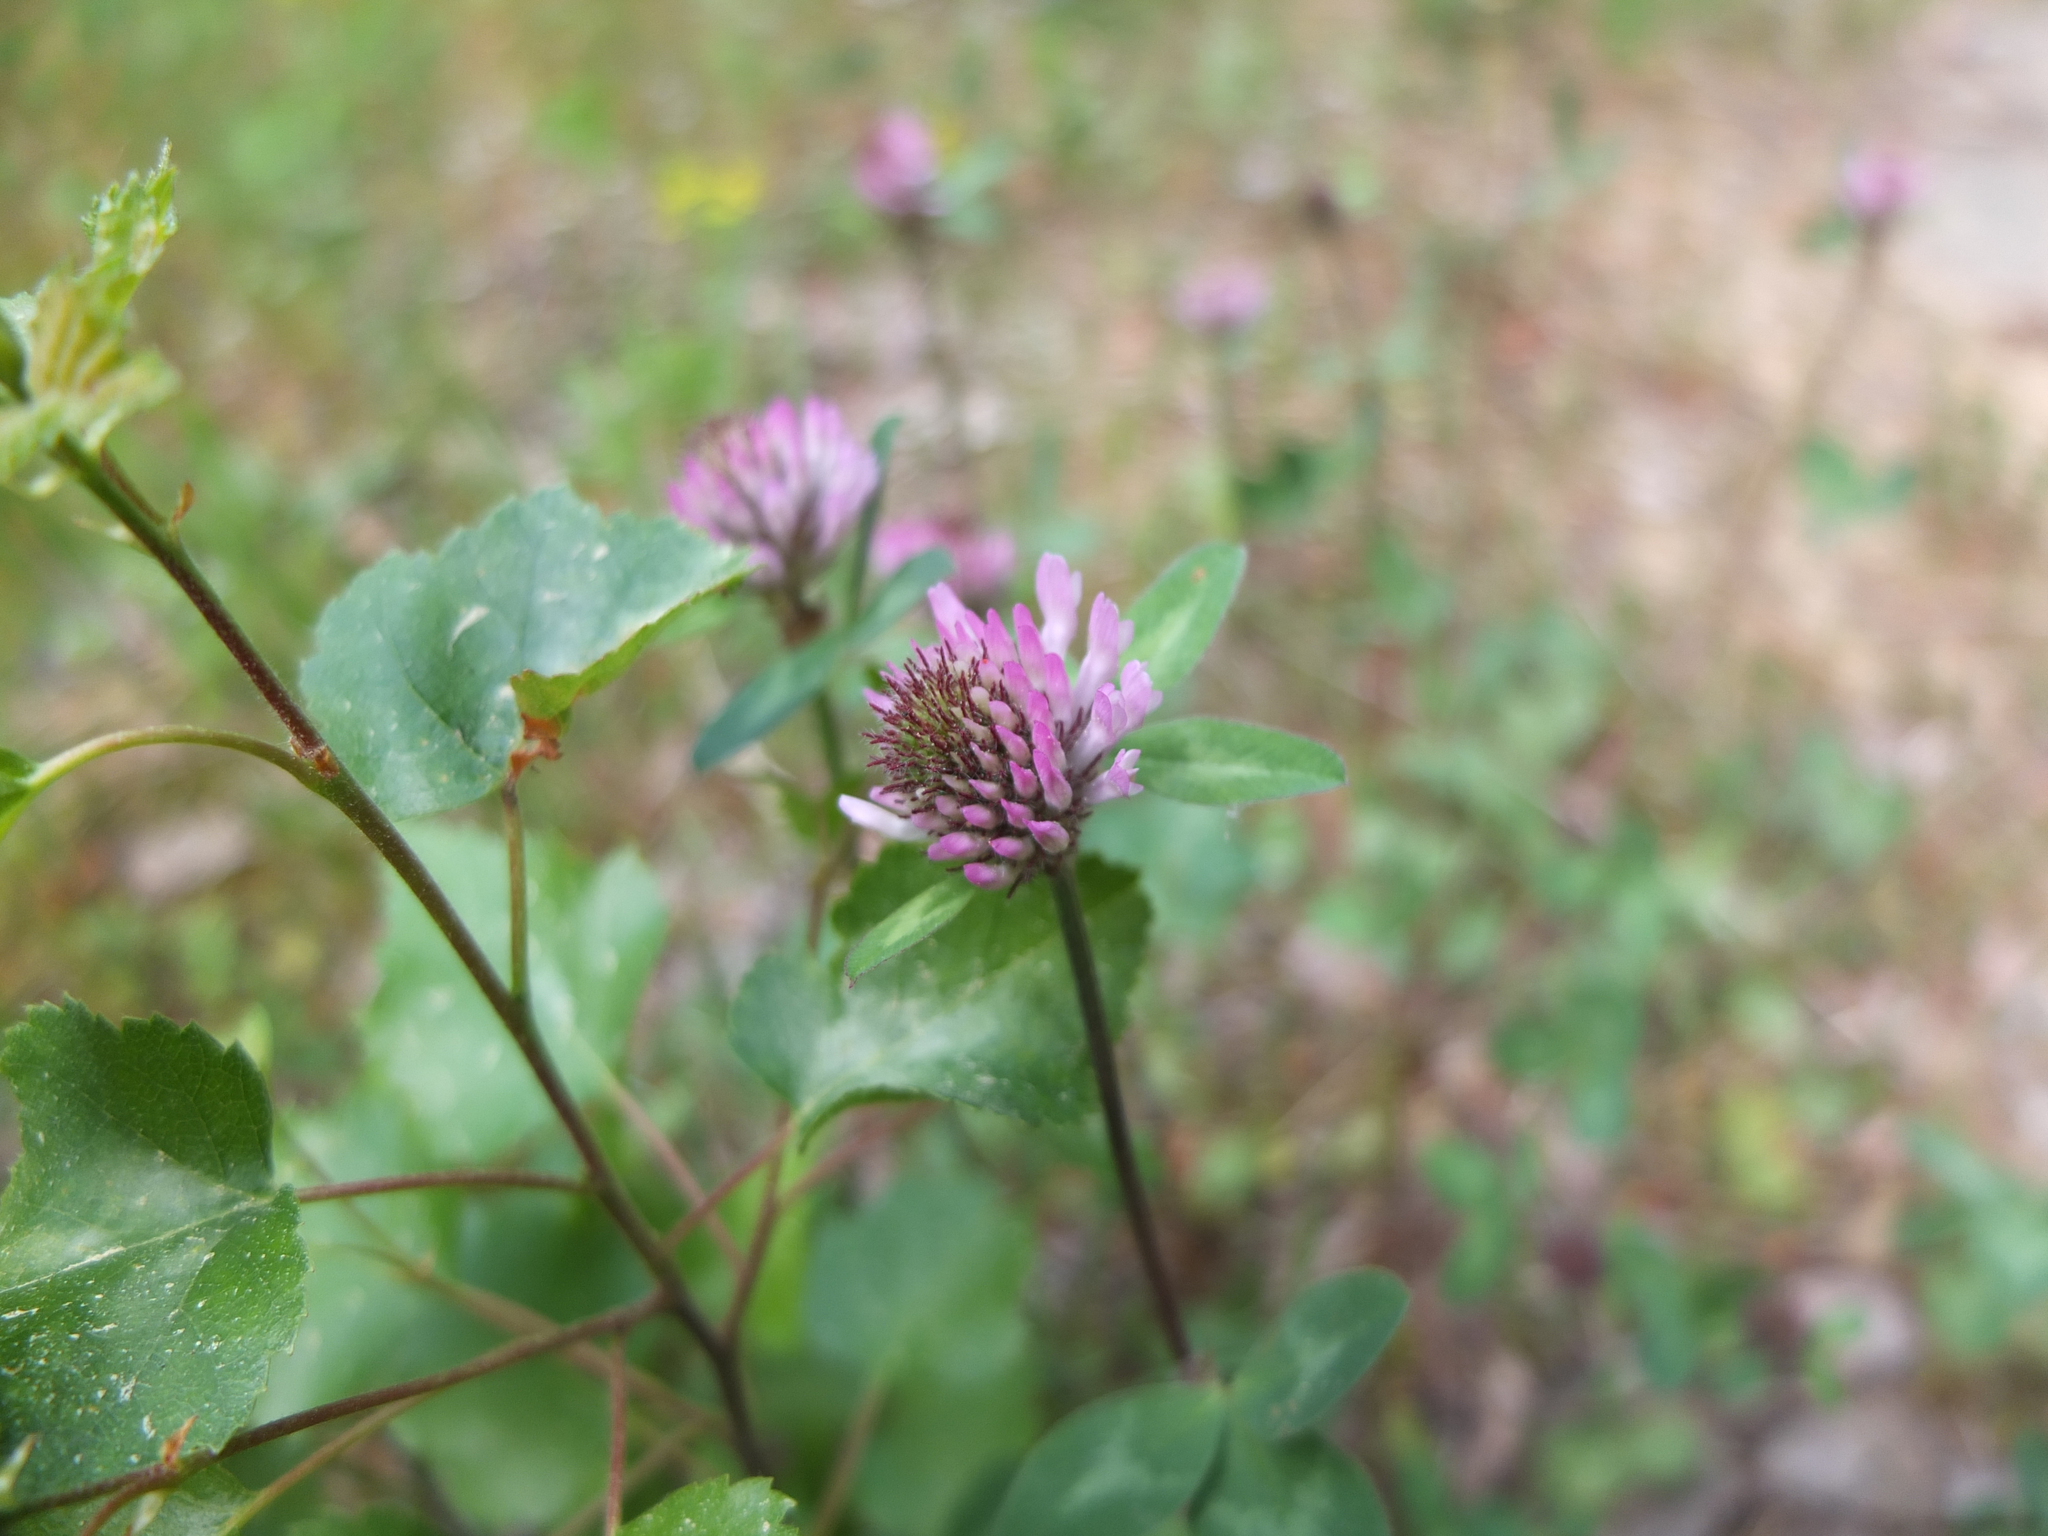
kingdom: Plantae
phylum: Tracheophyta
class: Magnoliopsida
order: Fabales
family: Fabaceae
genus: Trifolium
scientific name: Trifolium pratense
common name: Red clover
